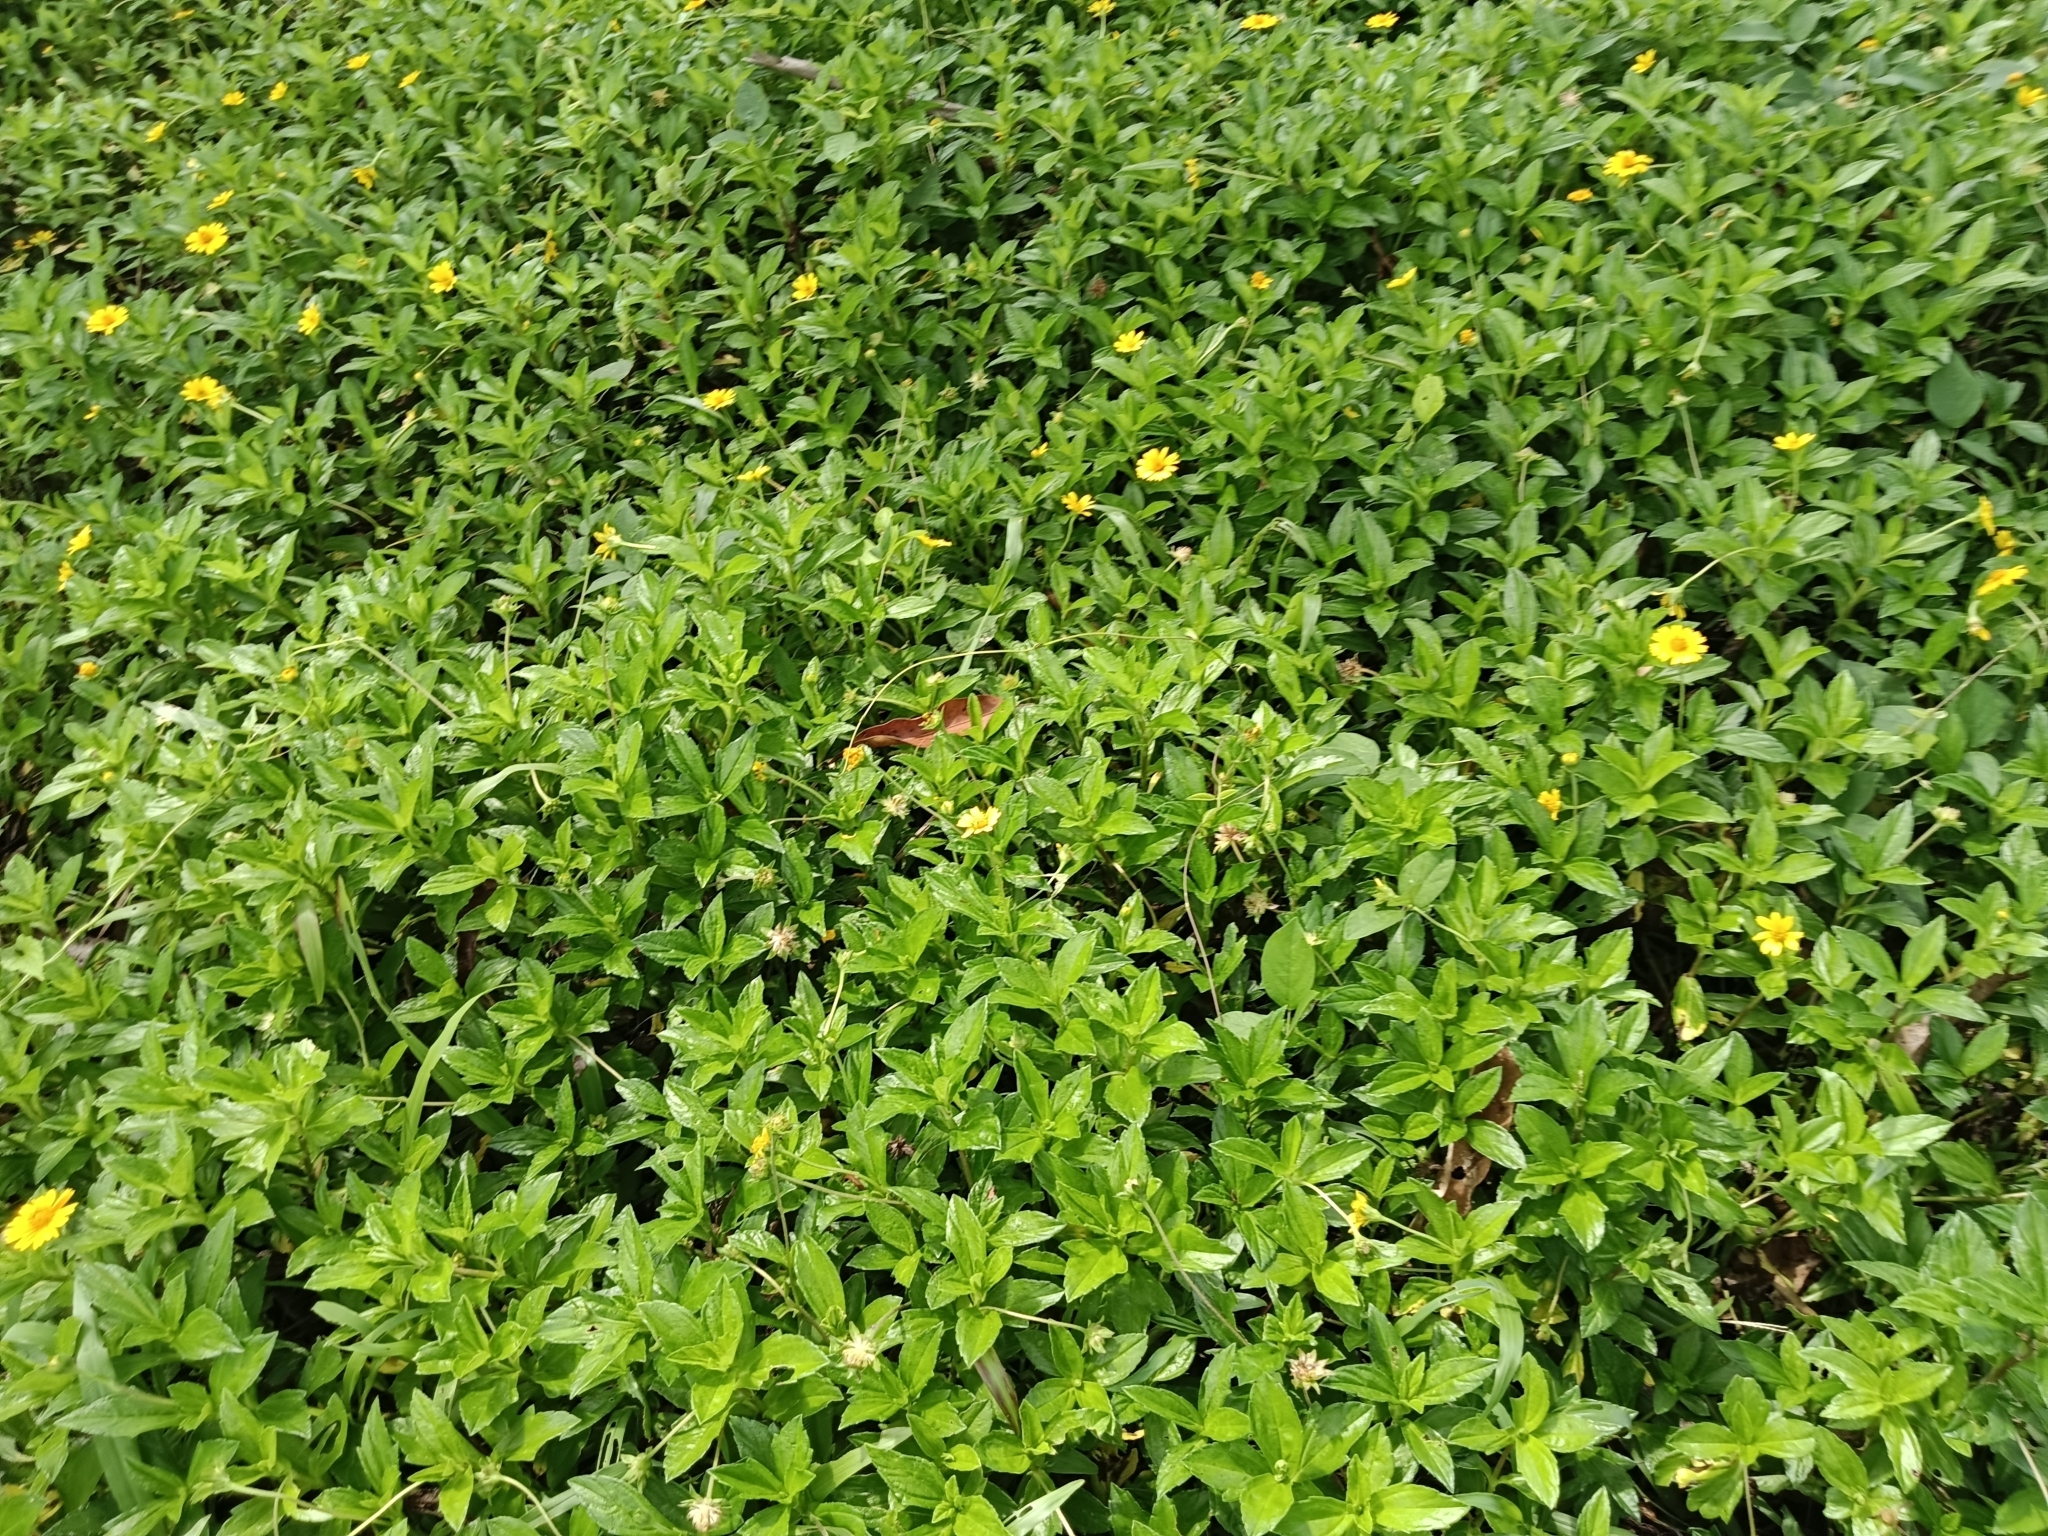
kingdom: Plantae
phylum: Tracheophyta
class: Magnoliopsida
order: Asterales
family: Asteraceae
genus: Sphagneticola
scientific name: Sphagneticola trilobata
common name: Bay biscayne creeping-oxeye
